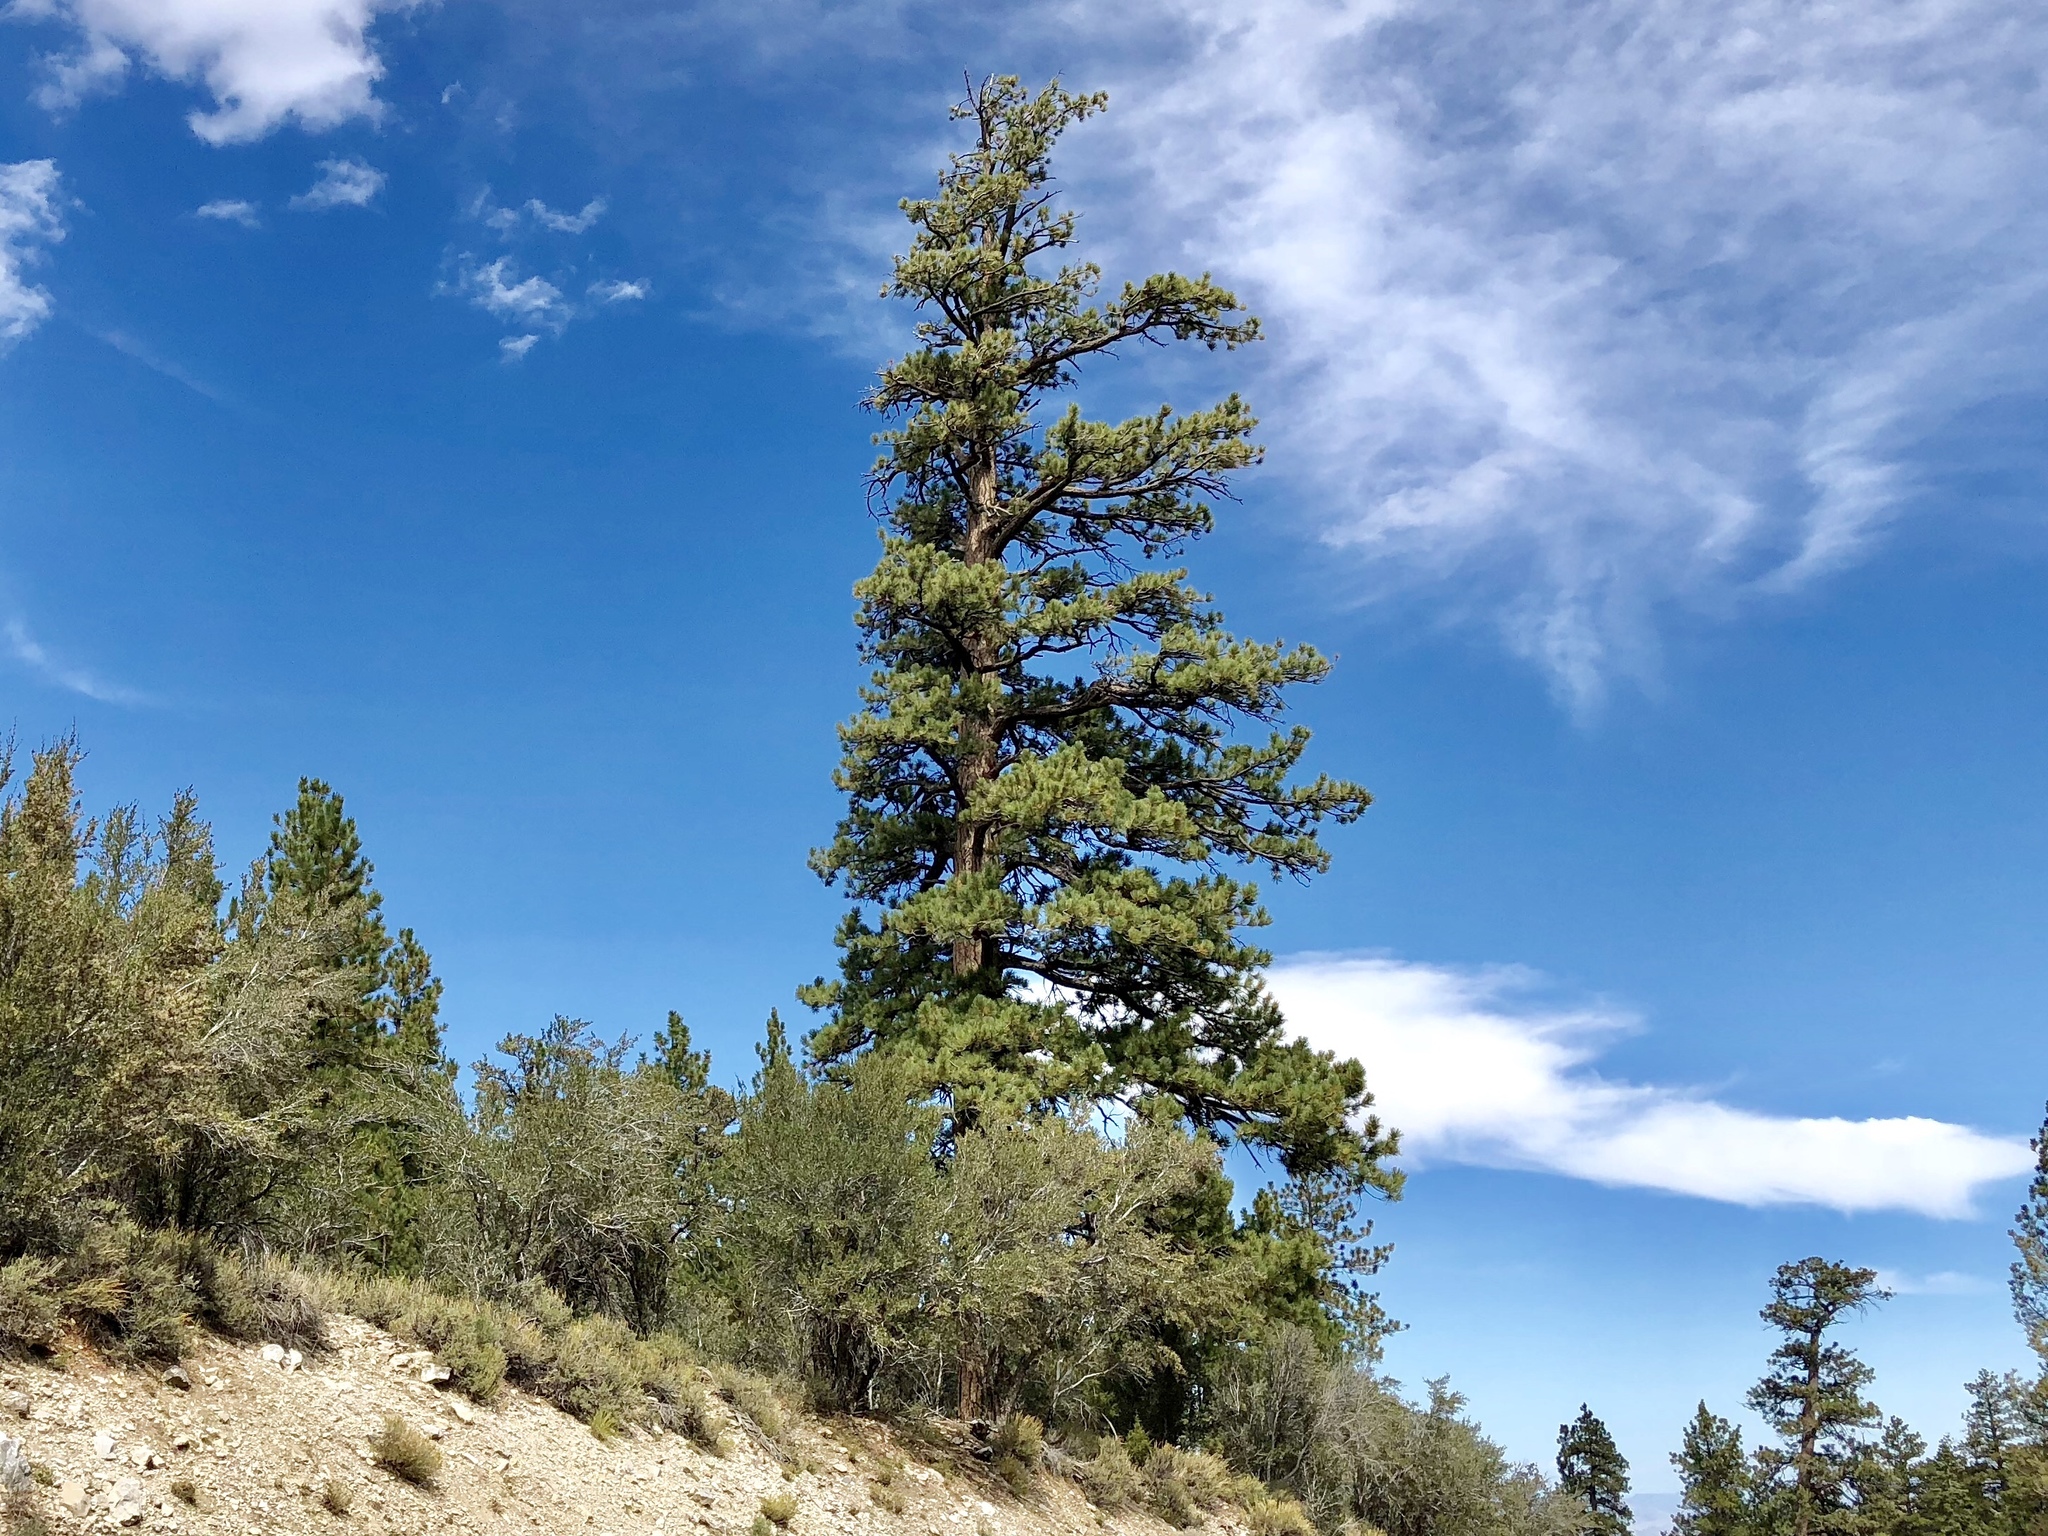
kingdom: Plantae
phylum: Tracheophyta
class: Pinopsida
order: Pinales
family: Pinaceae
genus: Pinus
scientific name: Pinus ponderosa
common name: Western yellow-pine
